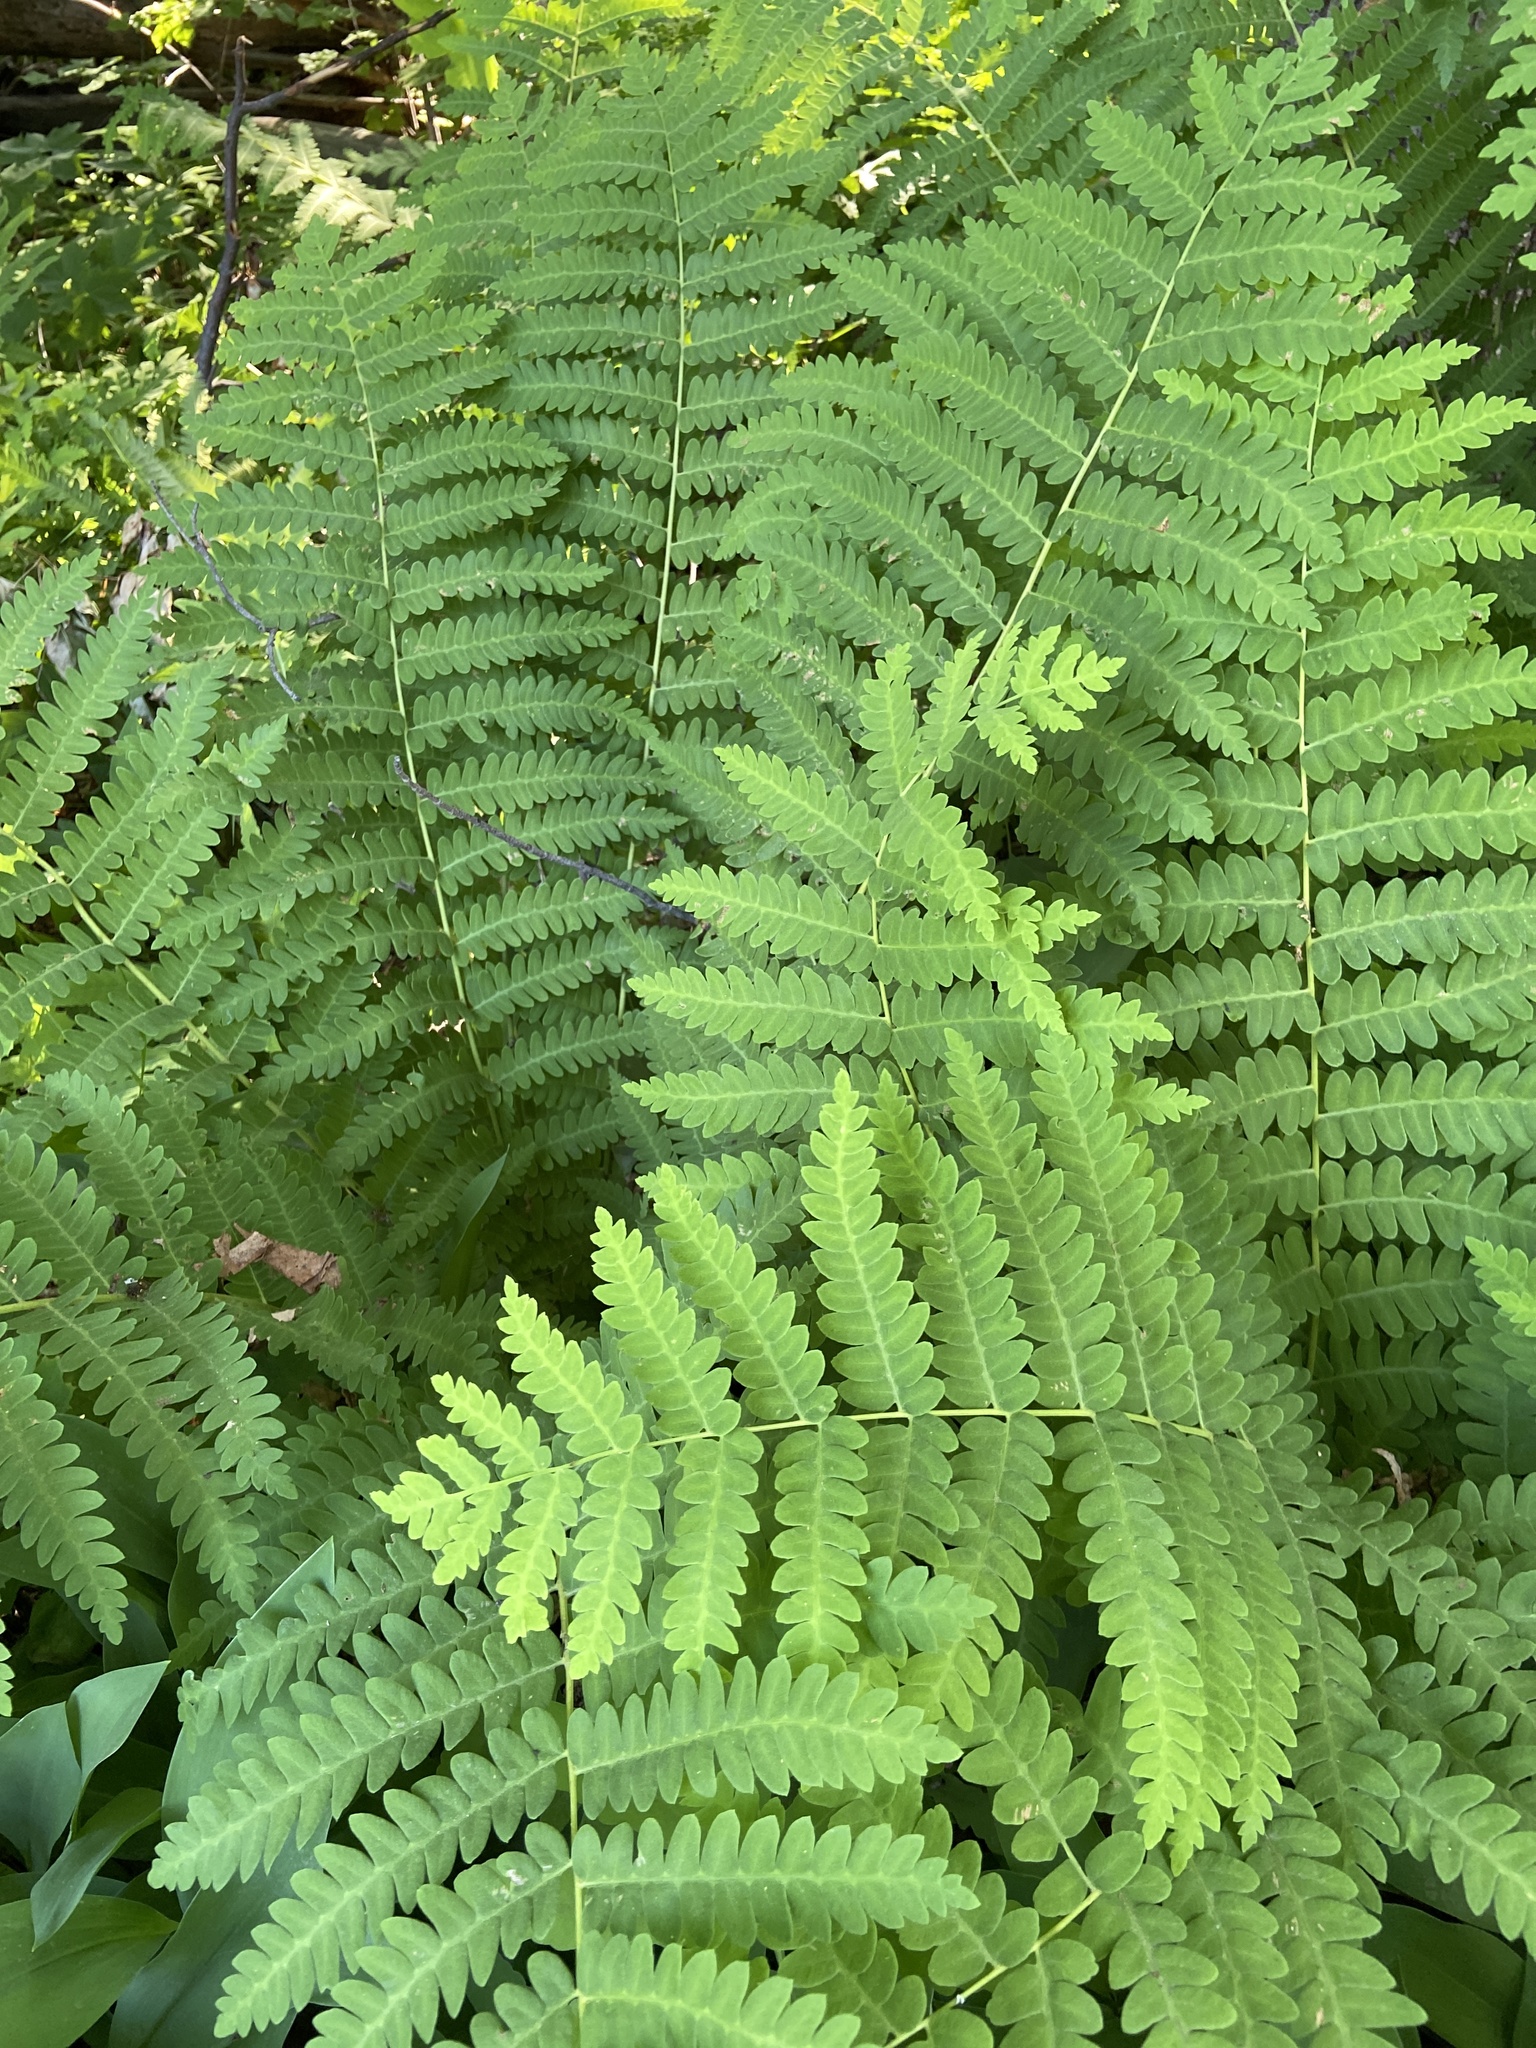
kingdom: Plantae
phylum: Tracheophyta
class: Polypodiopsida
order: Osmundales
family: Osmundaceae
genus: Claytosmunda
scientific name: Claytosmunda claytoniana
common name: Clayton's fern
